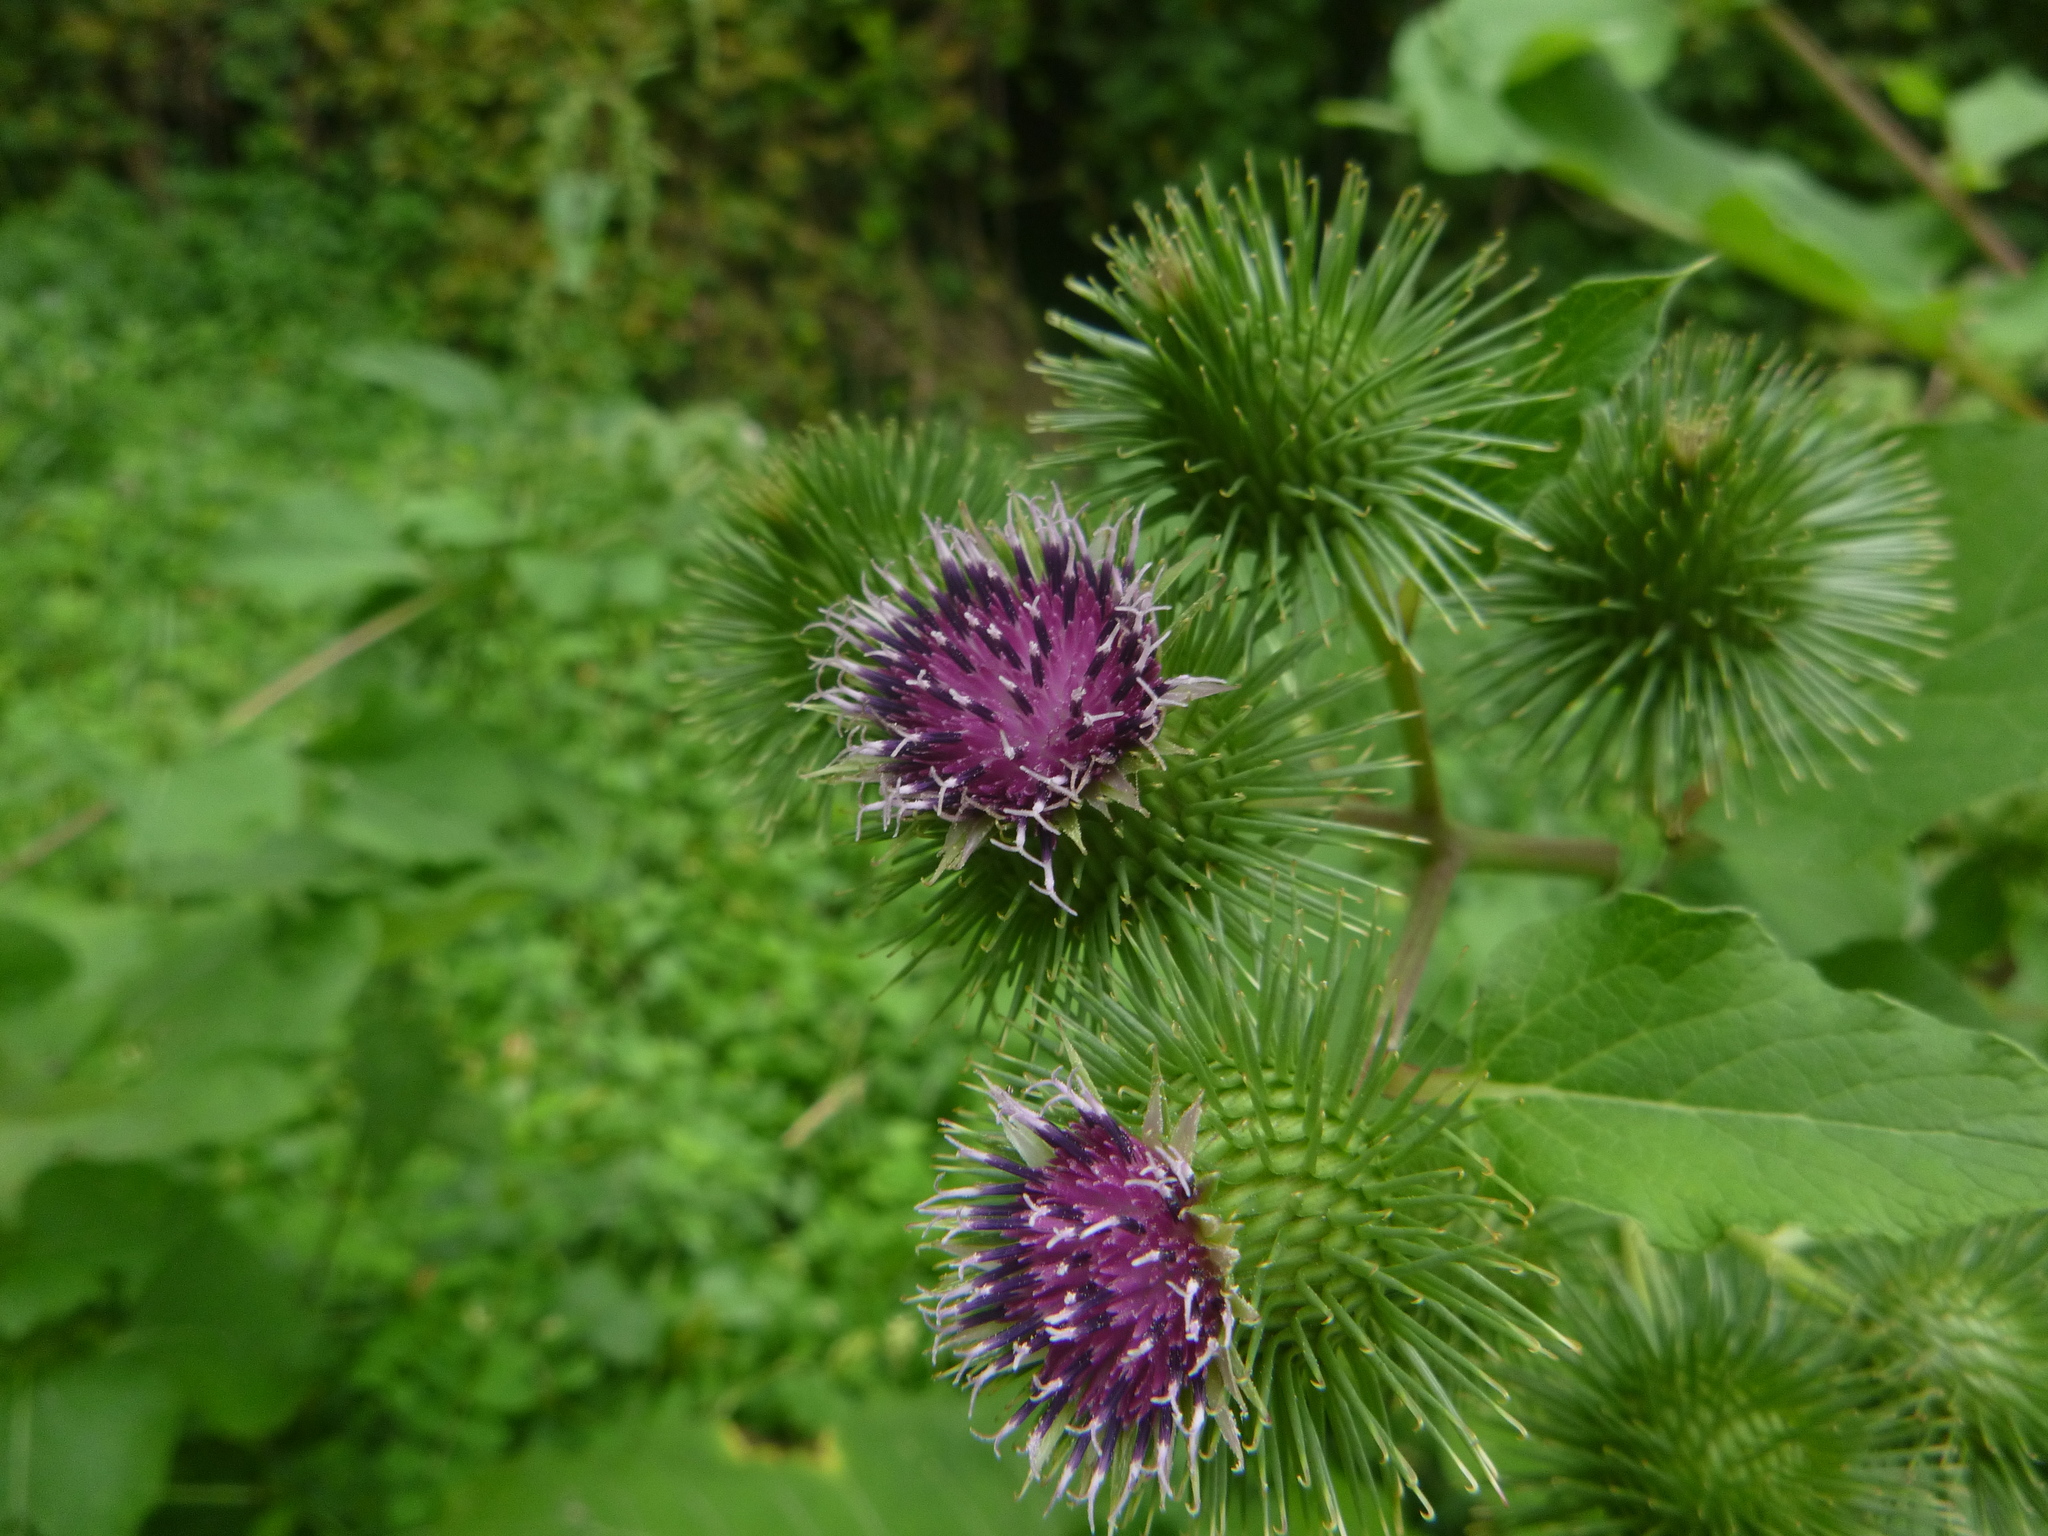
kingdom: Plantae
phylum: Tracheophyta
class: Magnoliopsida
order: Asterales
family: Asteraceae
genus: Arctium
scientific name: Arctium lappa
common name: Greater burdock
